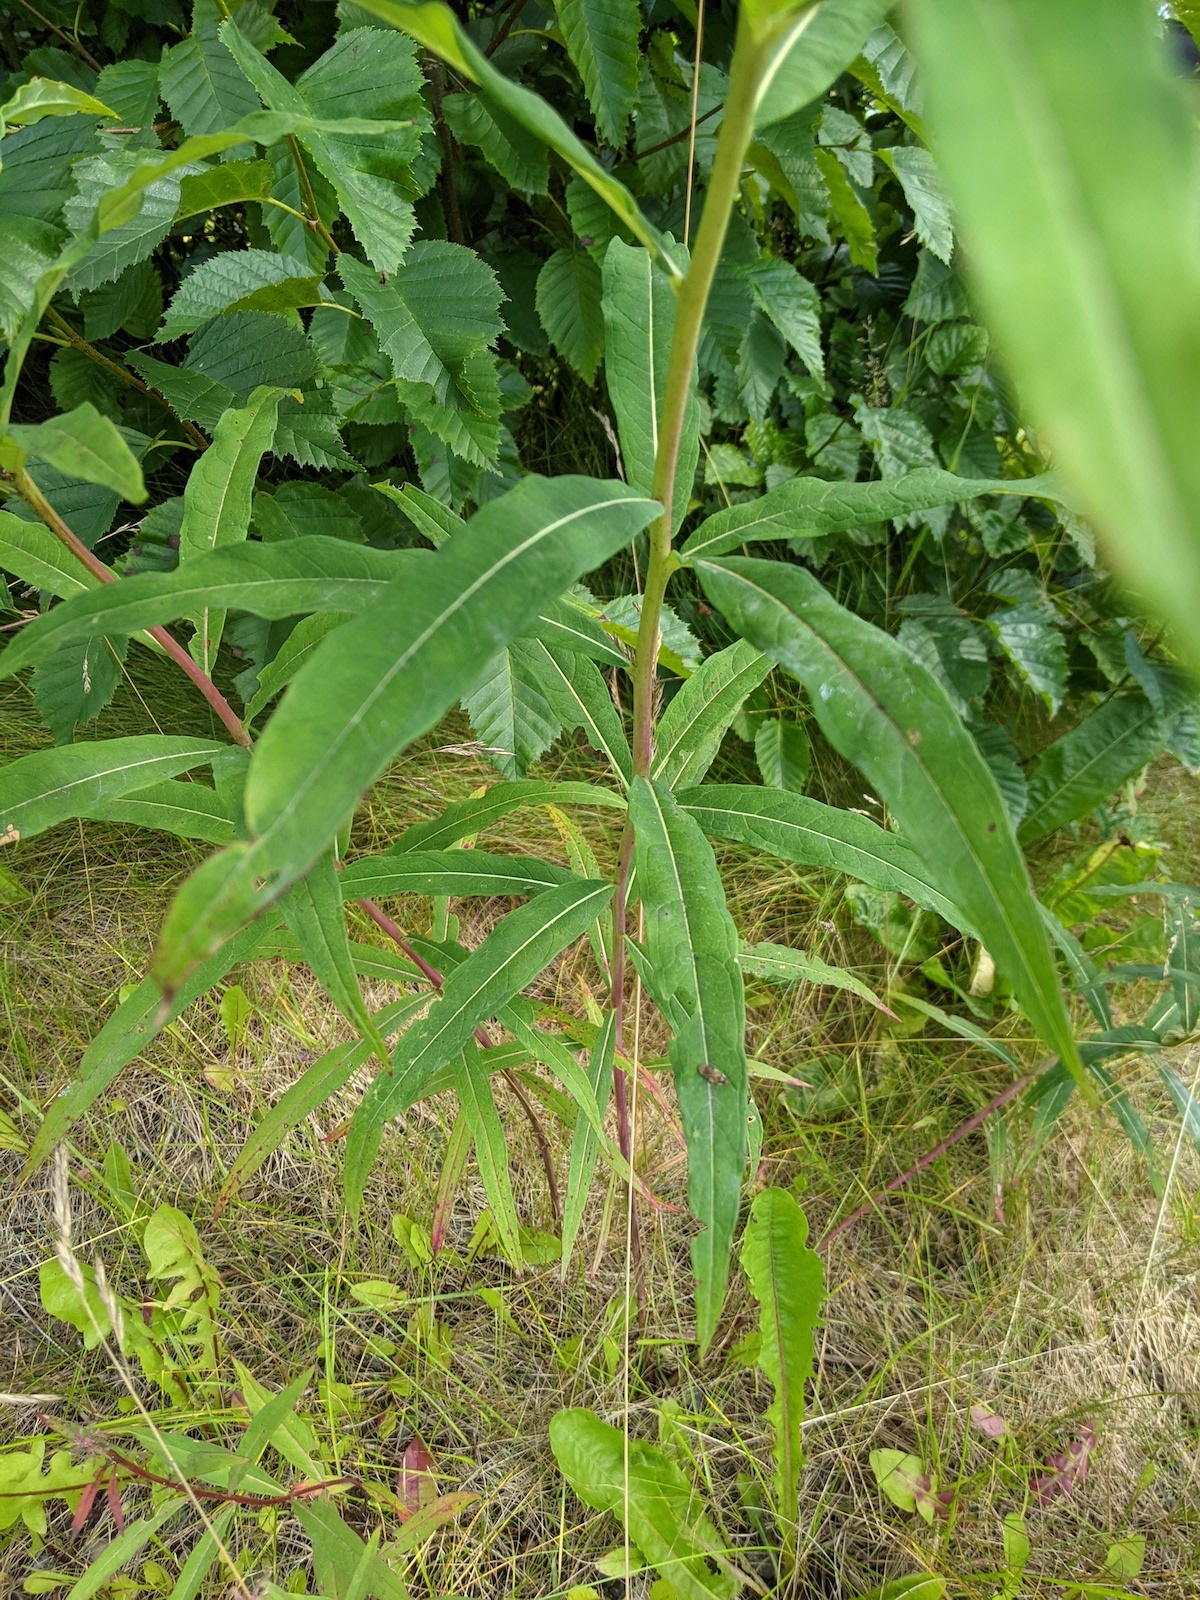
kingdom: Plantae
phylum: Tracheophyta
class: Magnoliopsida
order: Myrtales
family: Onagraceae
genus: Chamaenerion
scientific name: Chamaenerion angustifolium
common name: Fireweed
